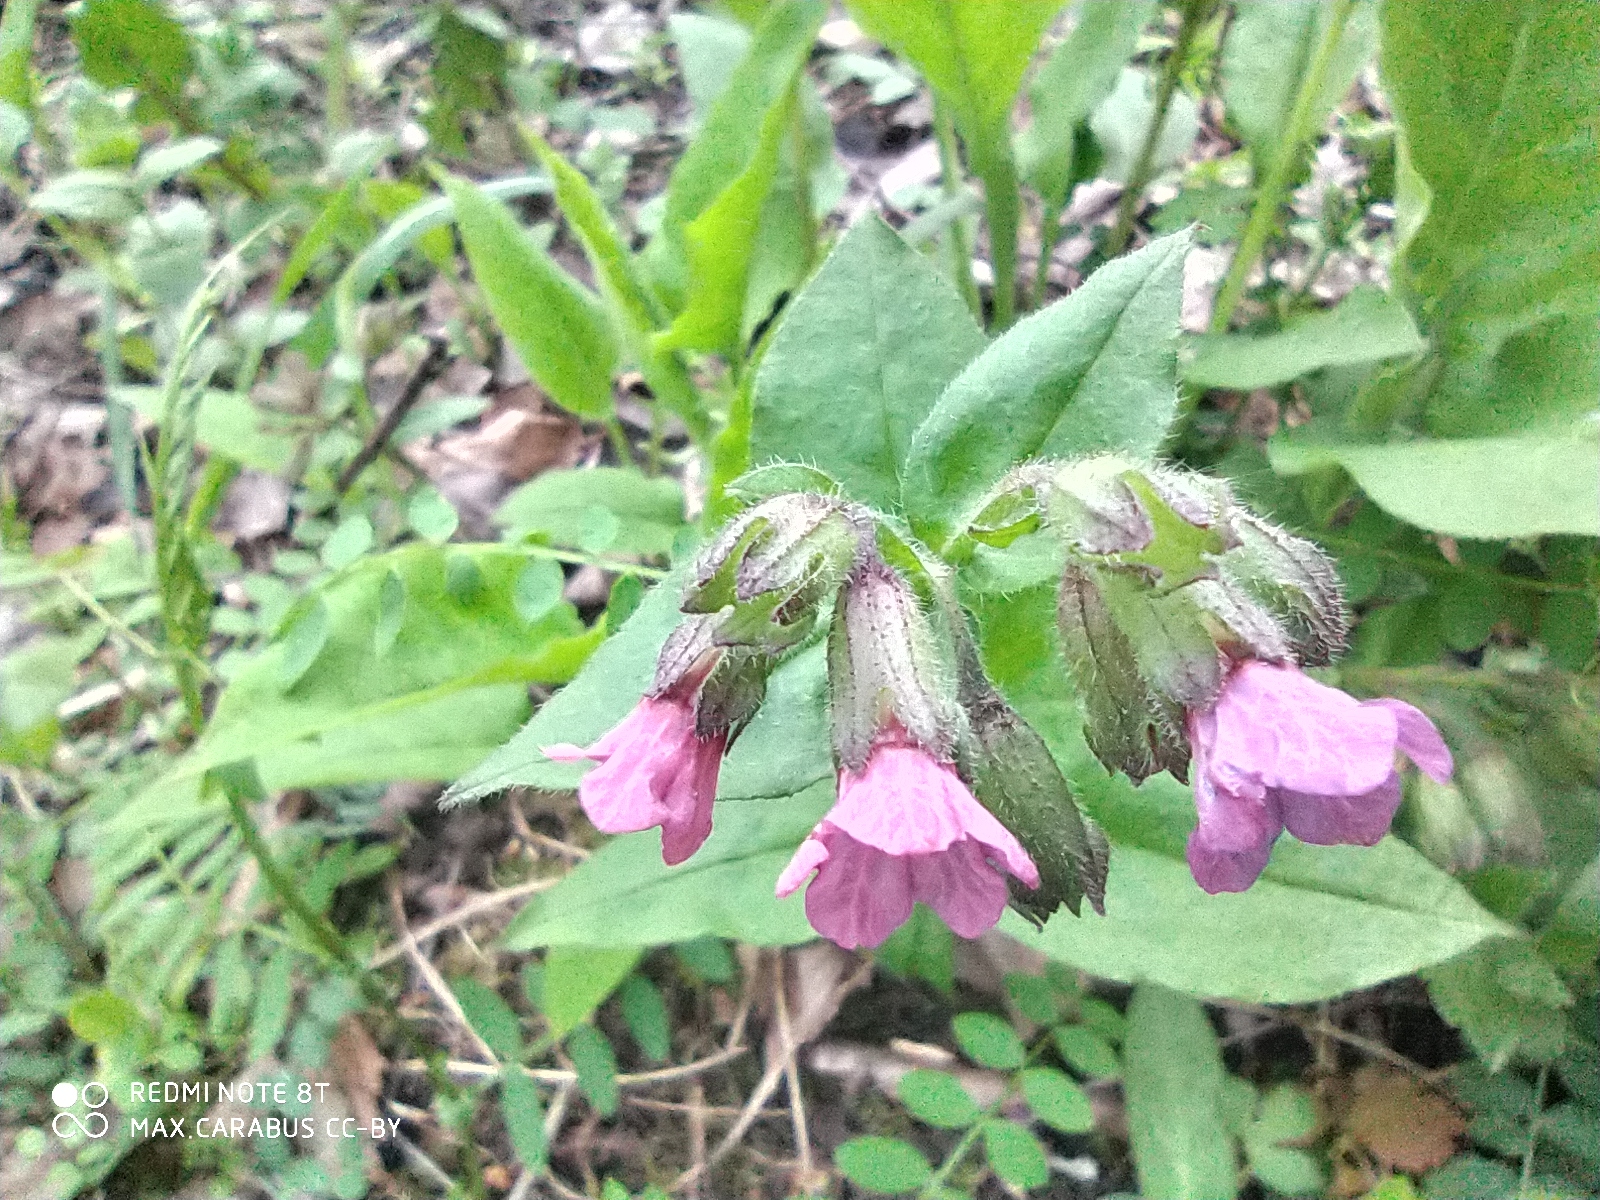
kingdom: Plantae
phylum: Tracheophyta
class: Magnoliopsida
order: Boraginales
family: Boraginaceae
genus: Pulmonaria
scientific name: Pulmonaria obscura
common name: Suffolk lungwort
